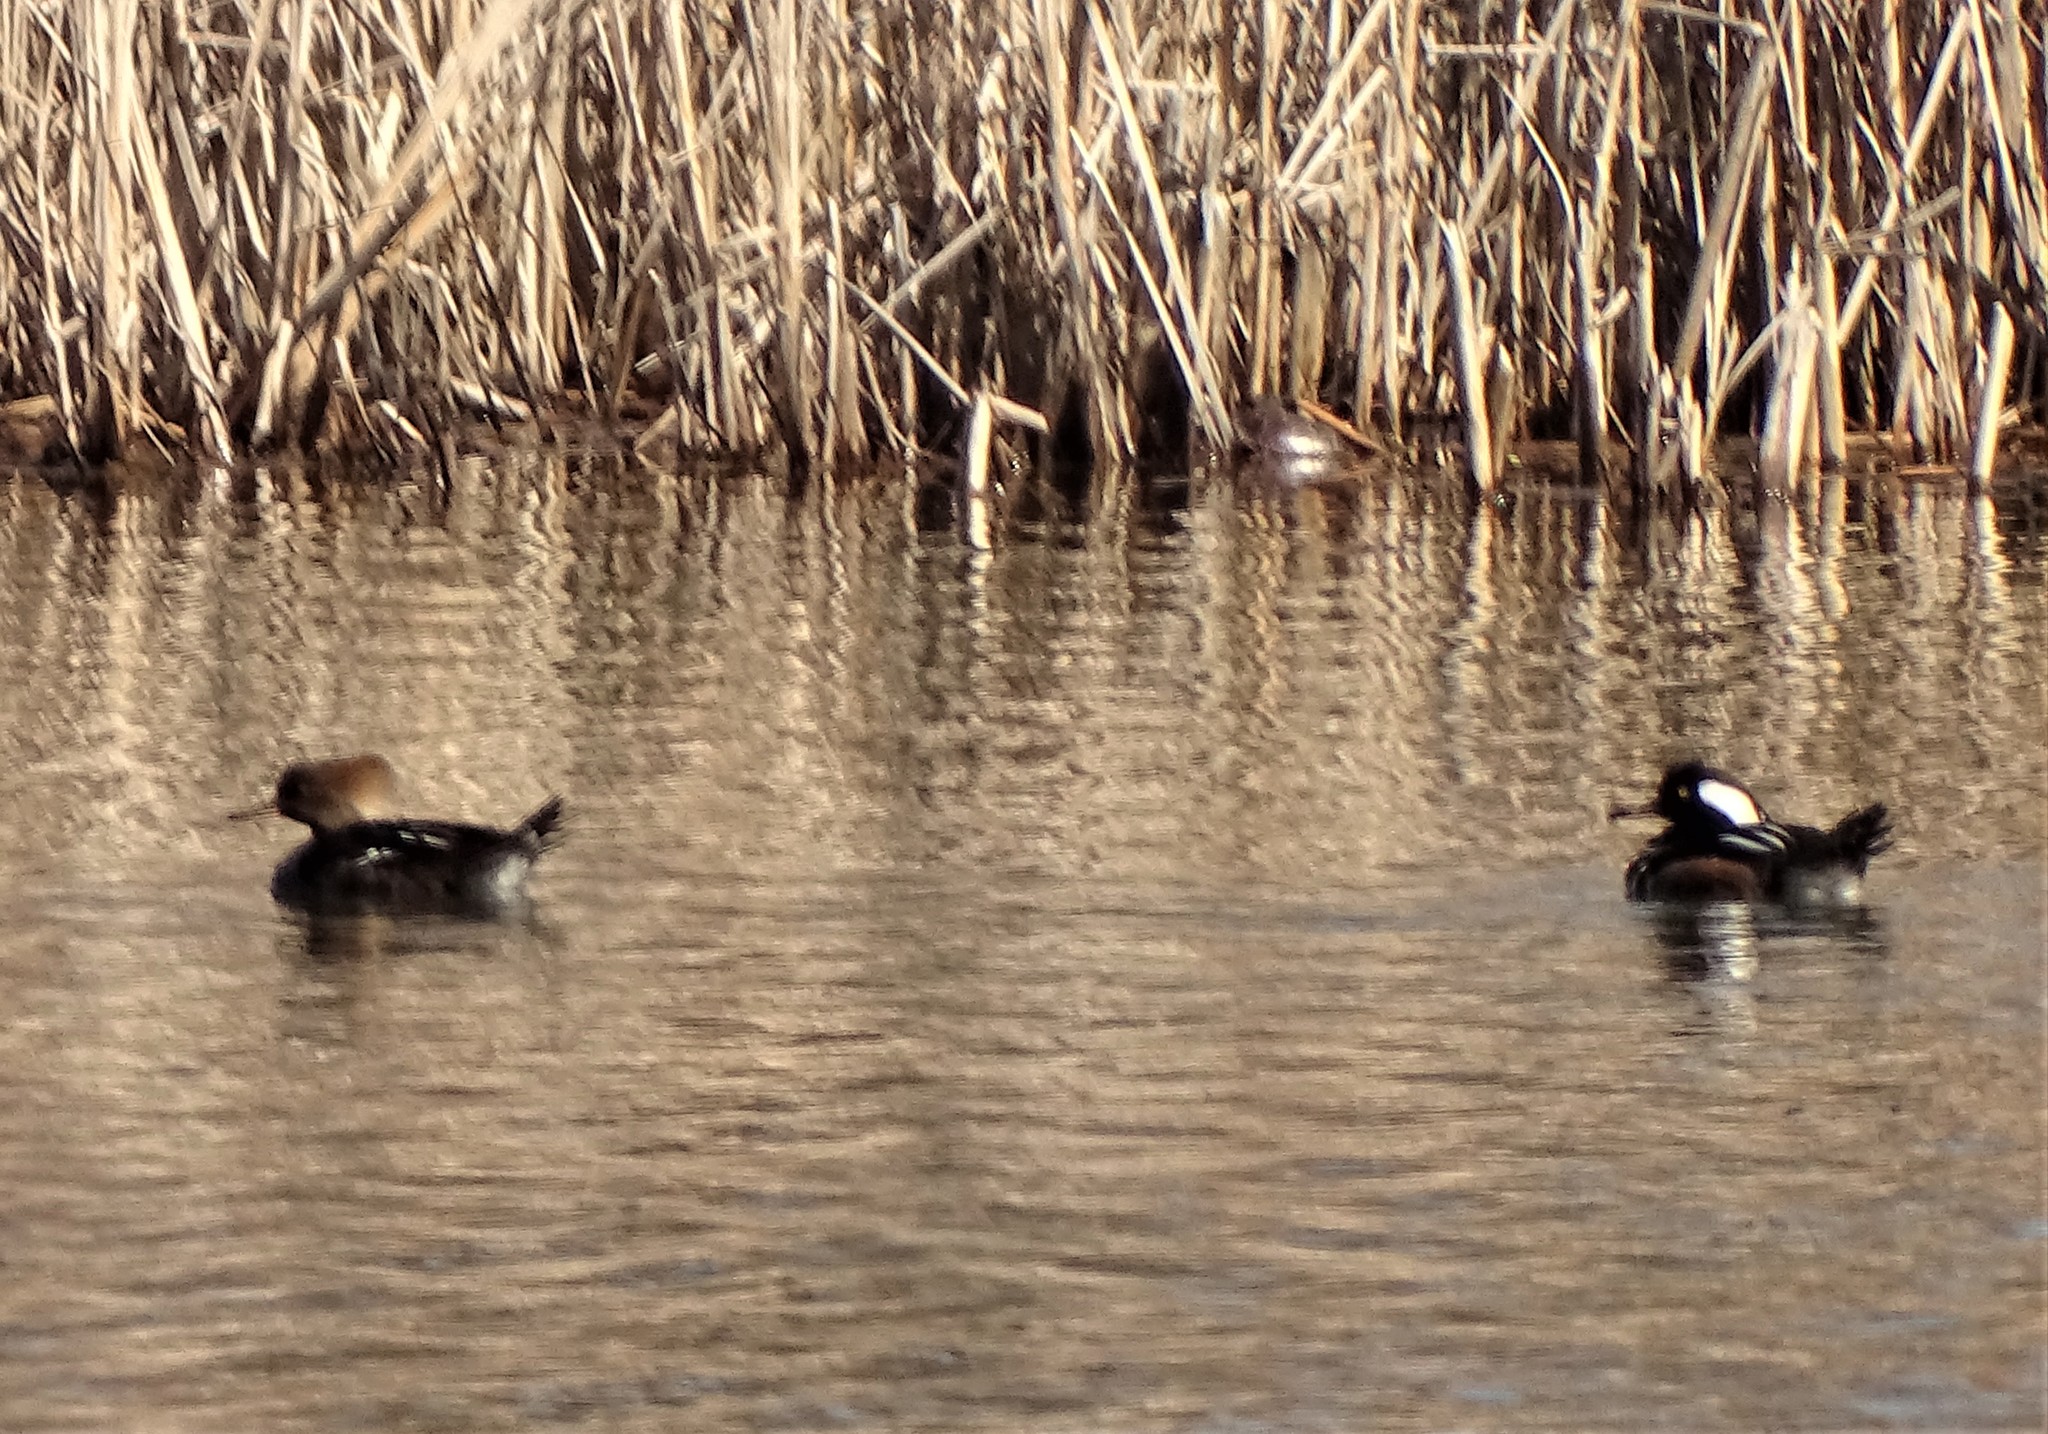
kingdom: Animalia
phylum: Chordata
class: Aves
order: Anseriformes
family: Anatidae
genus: Lophodytes
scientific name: Lophodytes cucullatus
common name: Hooded merganser
